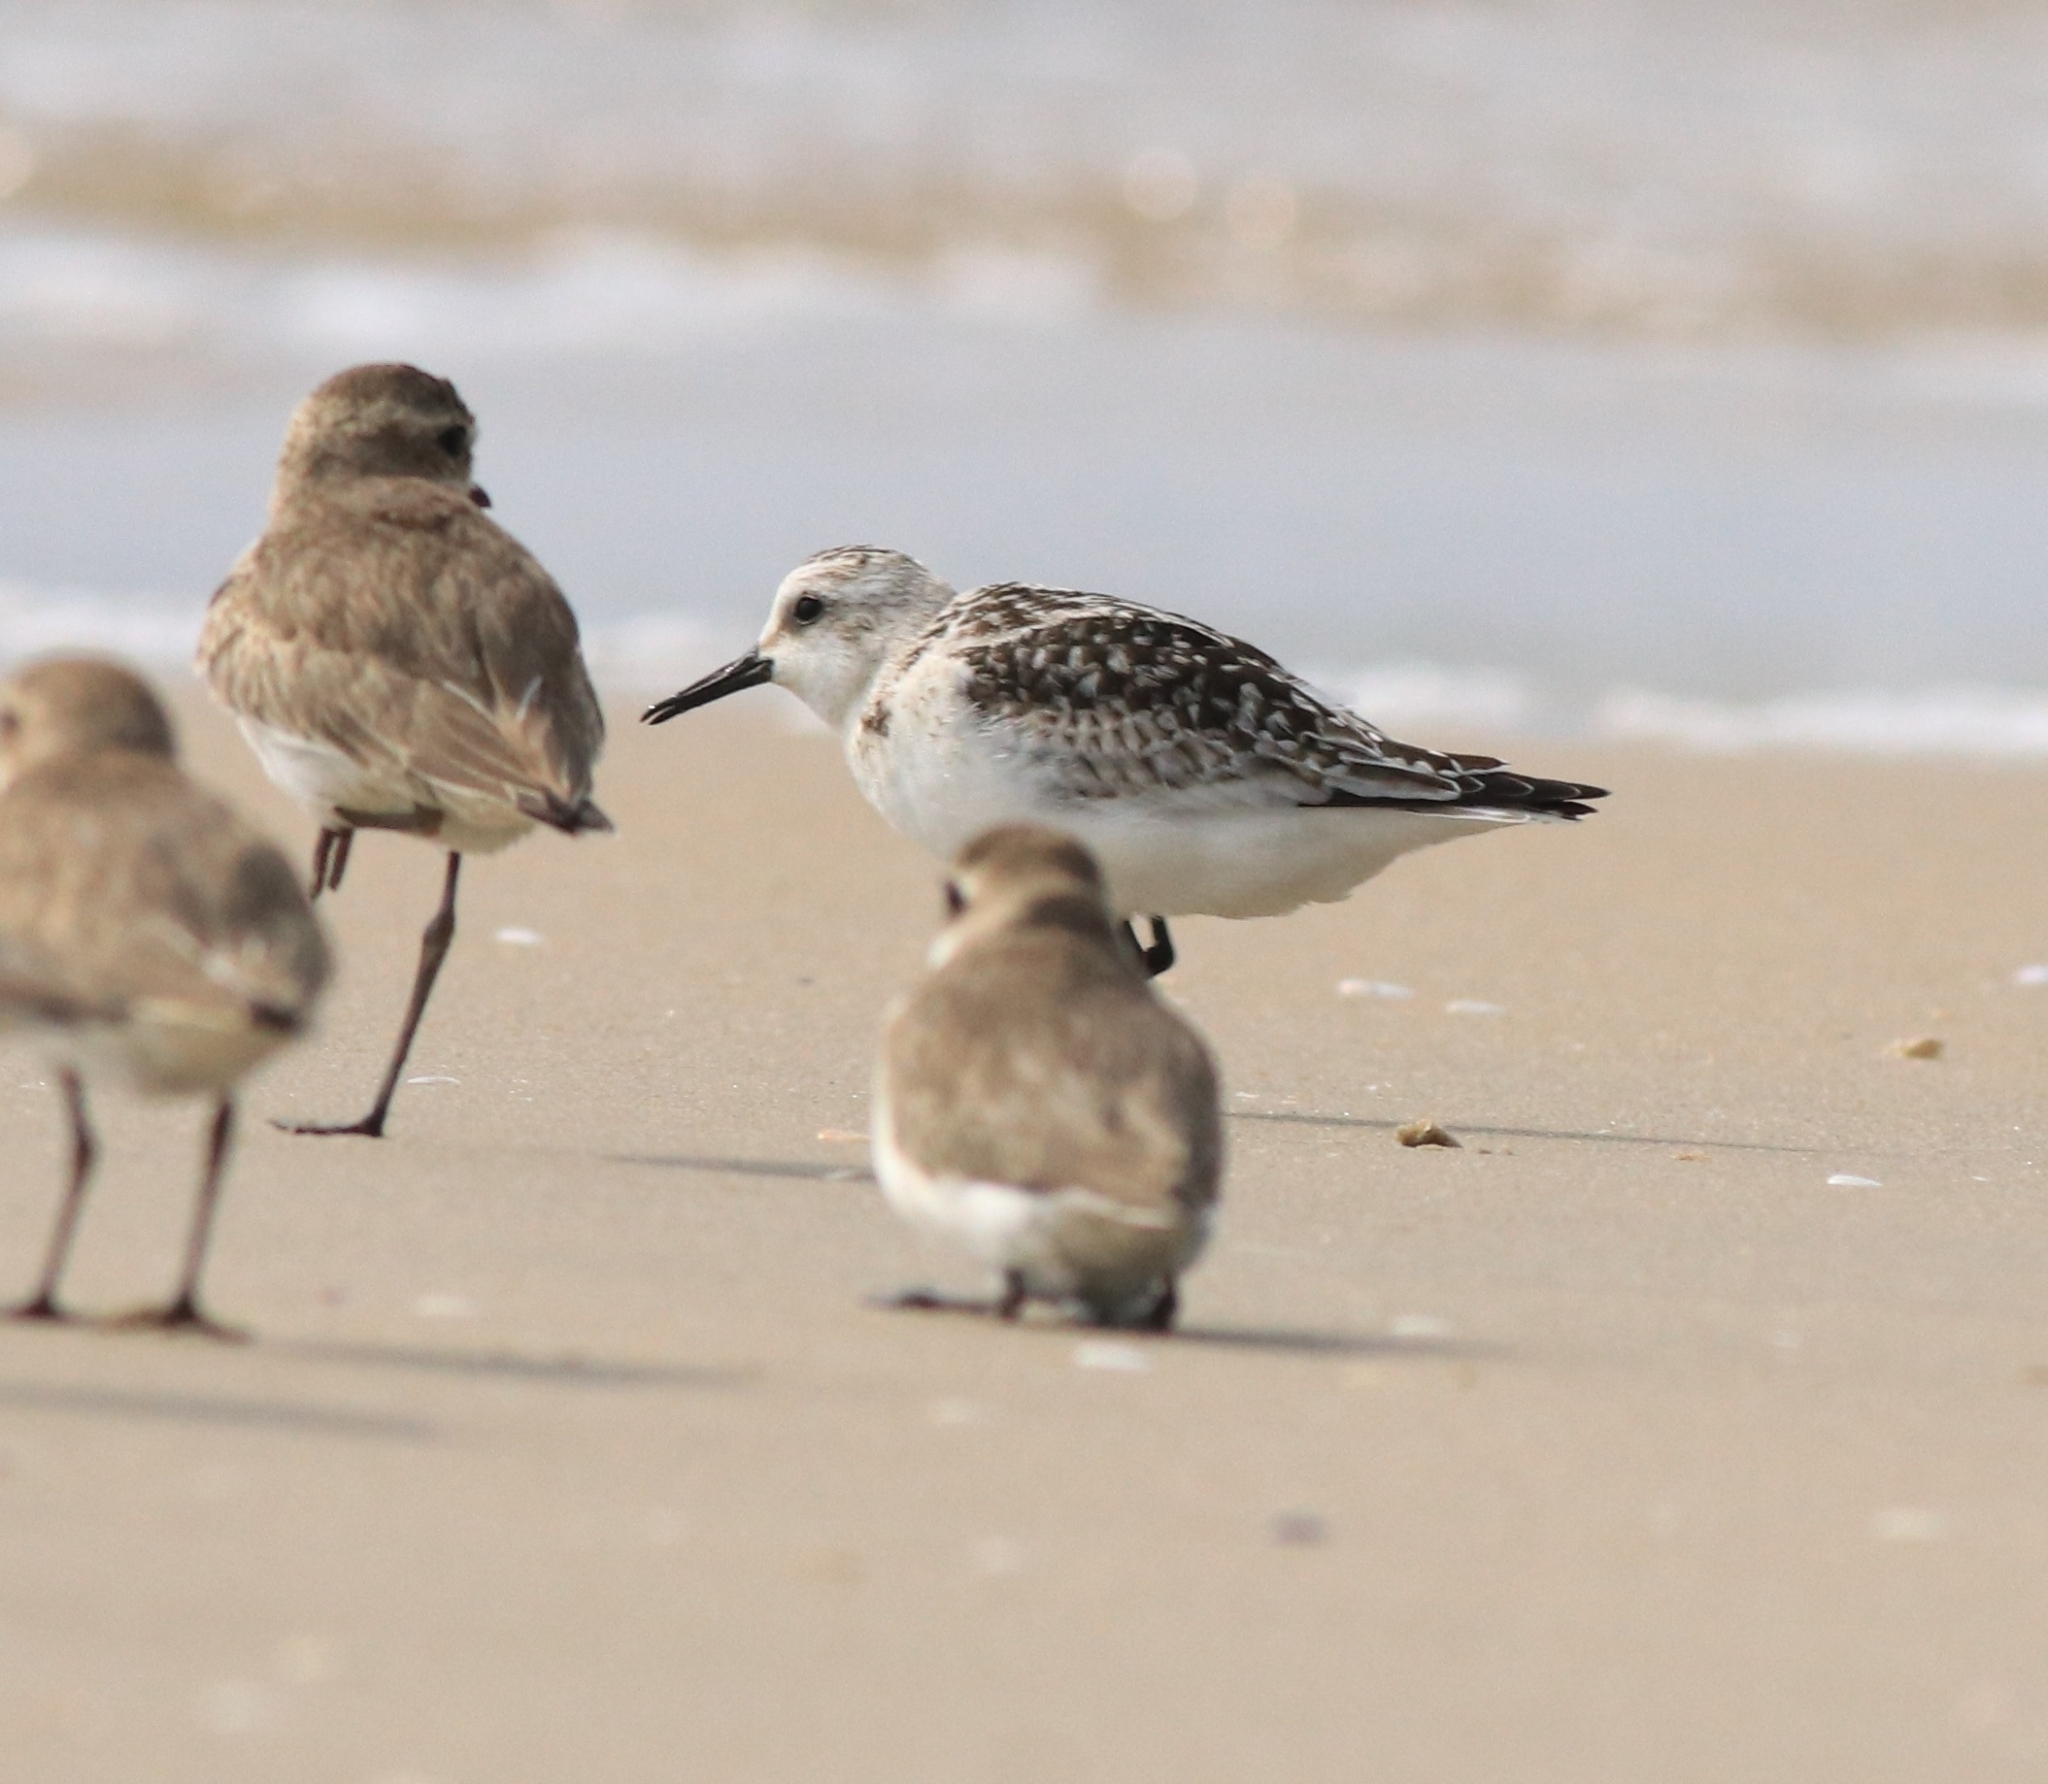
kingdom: Animalia
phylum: Chordata
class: Aves
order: Charadriiformes
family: Scolopacidae
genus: Calidris
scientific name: Calidris alba
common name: Sanderling
